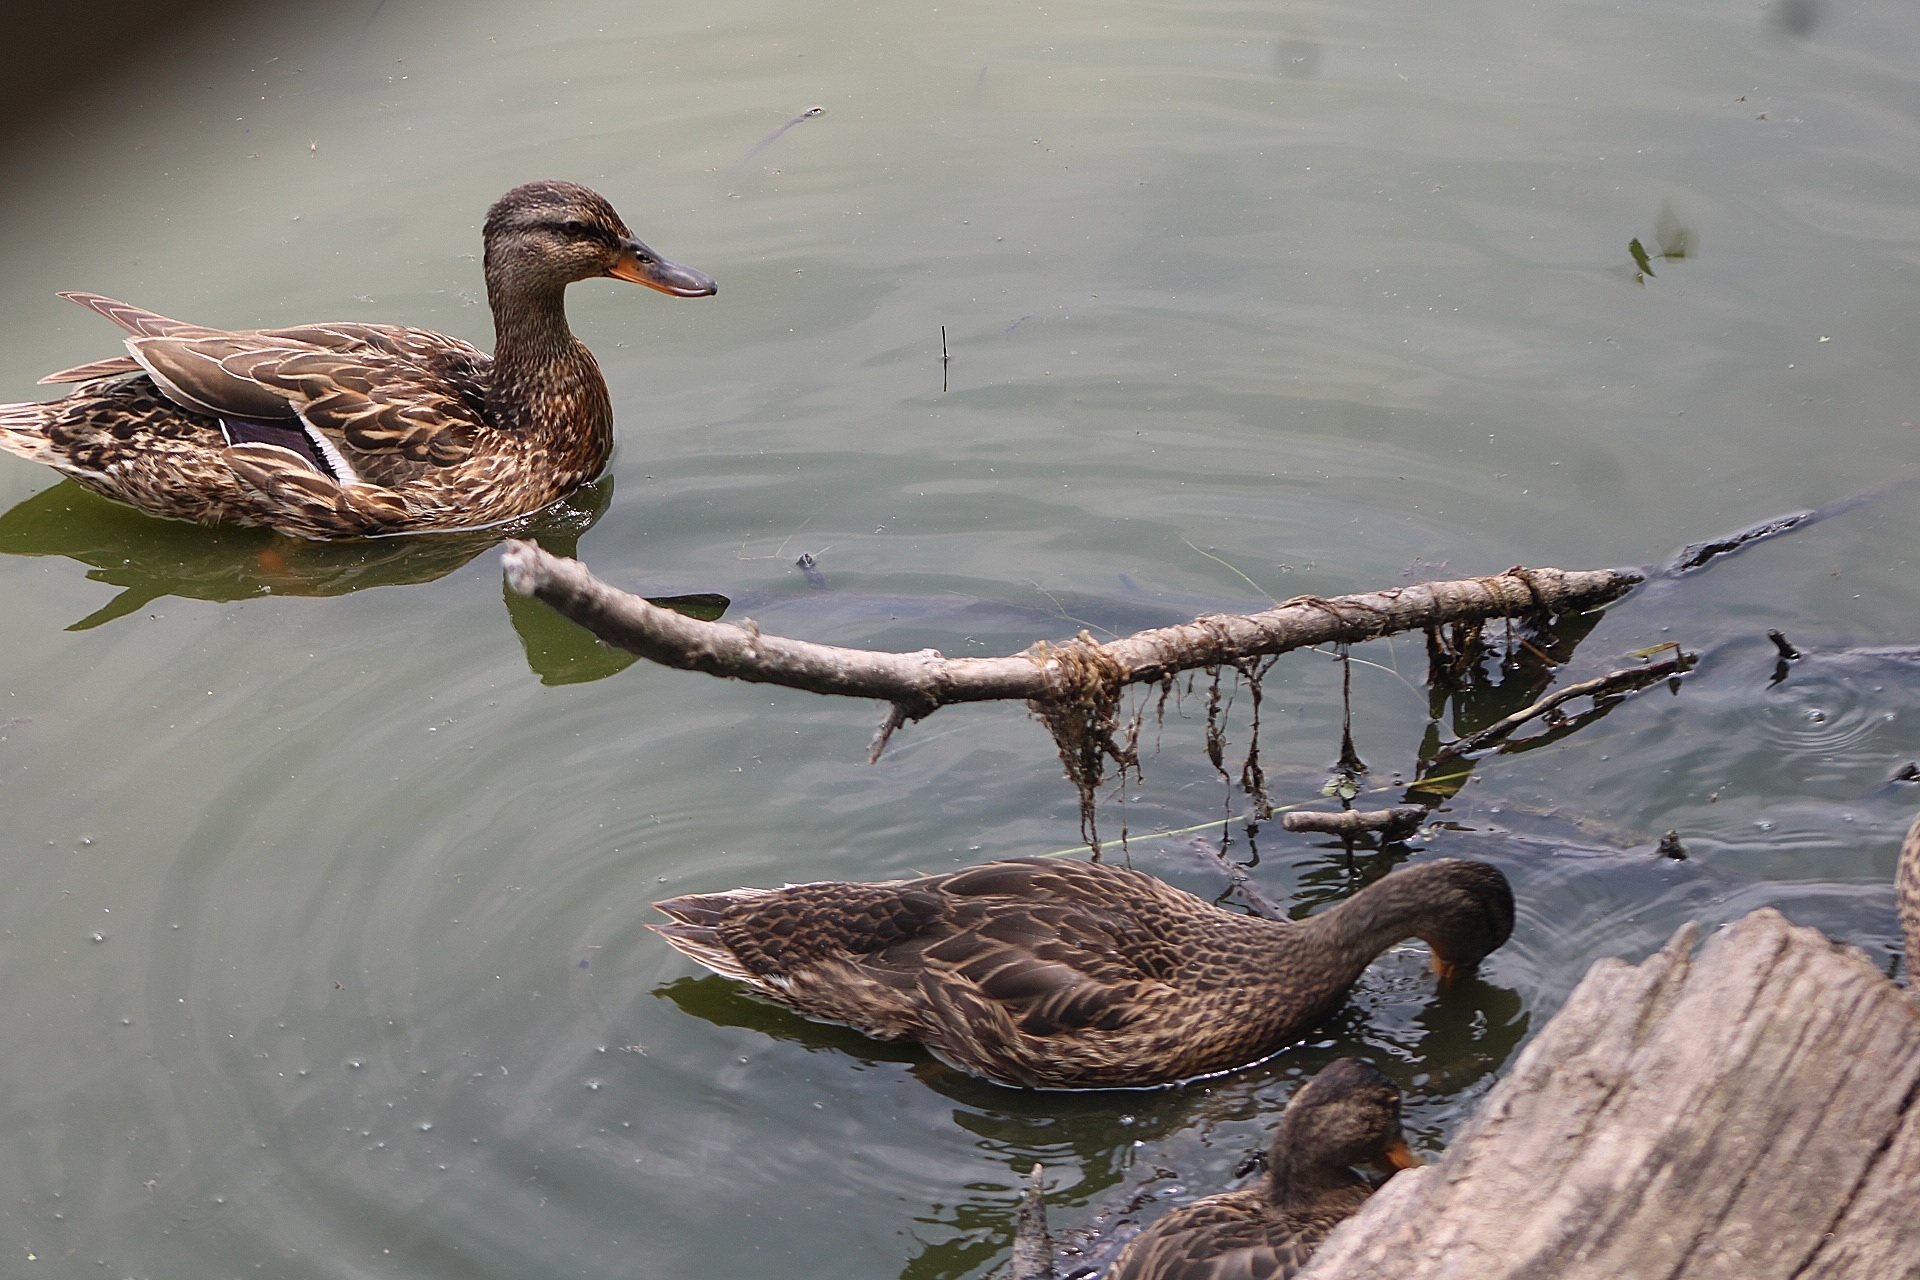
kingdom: Animalia
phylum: Chordata
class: Aves
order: Anseriformes
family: Anatidae
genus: Anas
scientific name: Anas platyrhynchos
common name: Mallard
